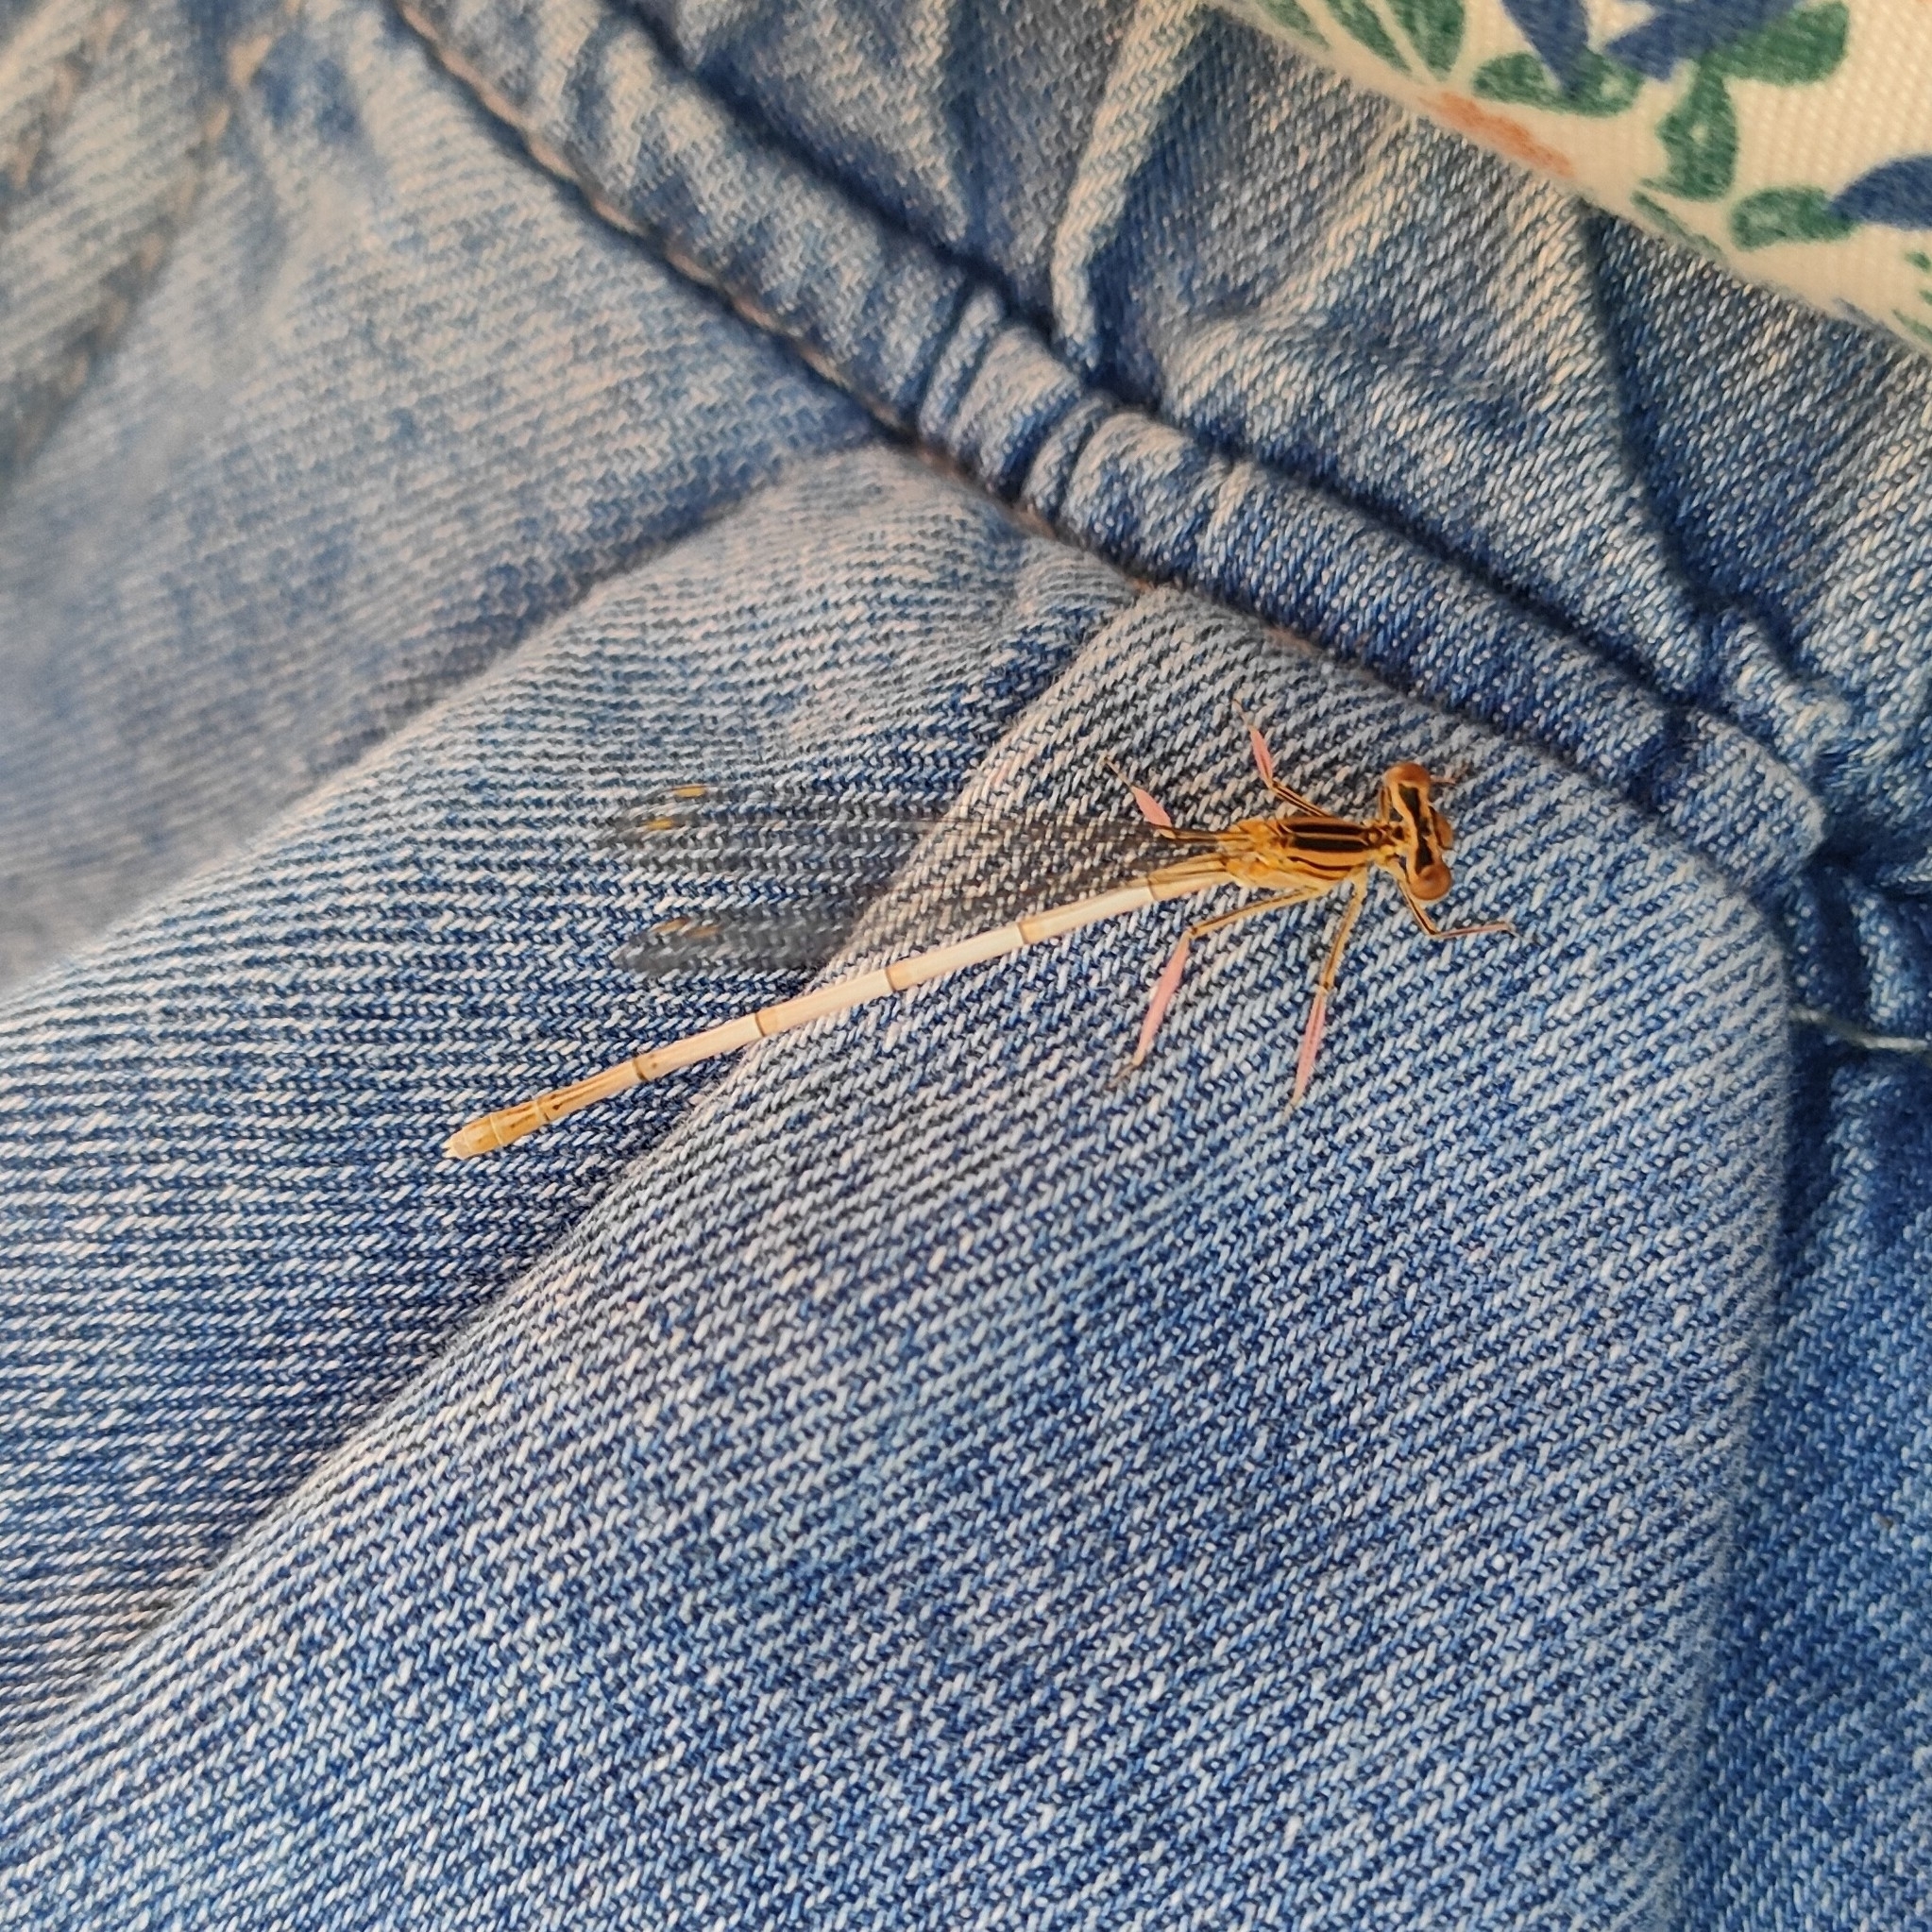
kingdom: Animalia
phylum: Arthropoda
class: Insecta
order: Odonata
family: Platycnemididae
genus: Platycnemis
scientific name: Platycnemis pennipes
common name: White-legged damselfly
